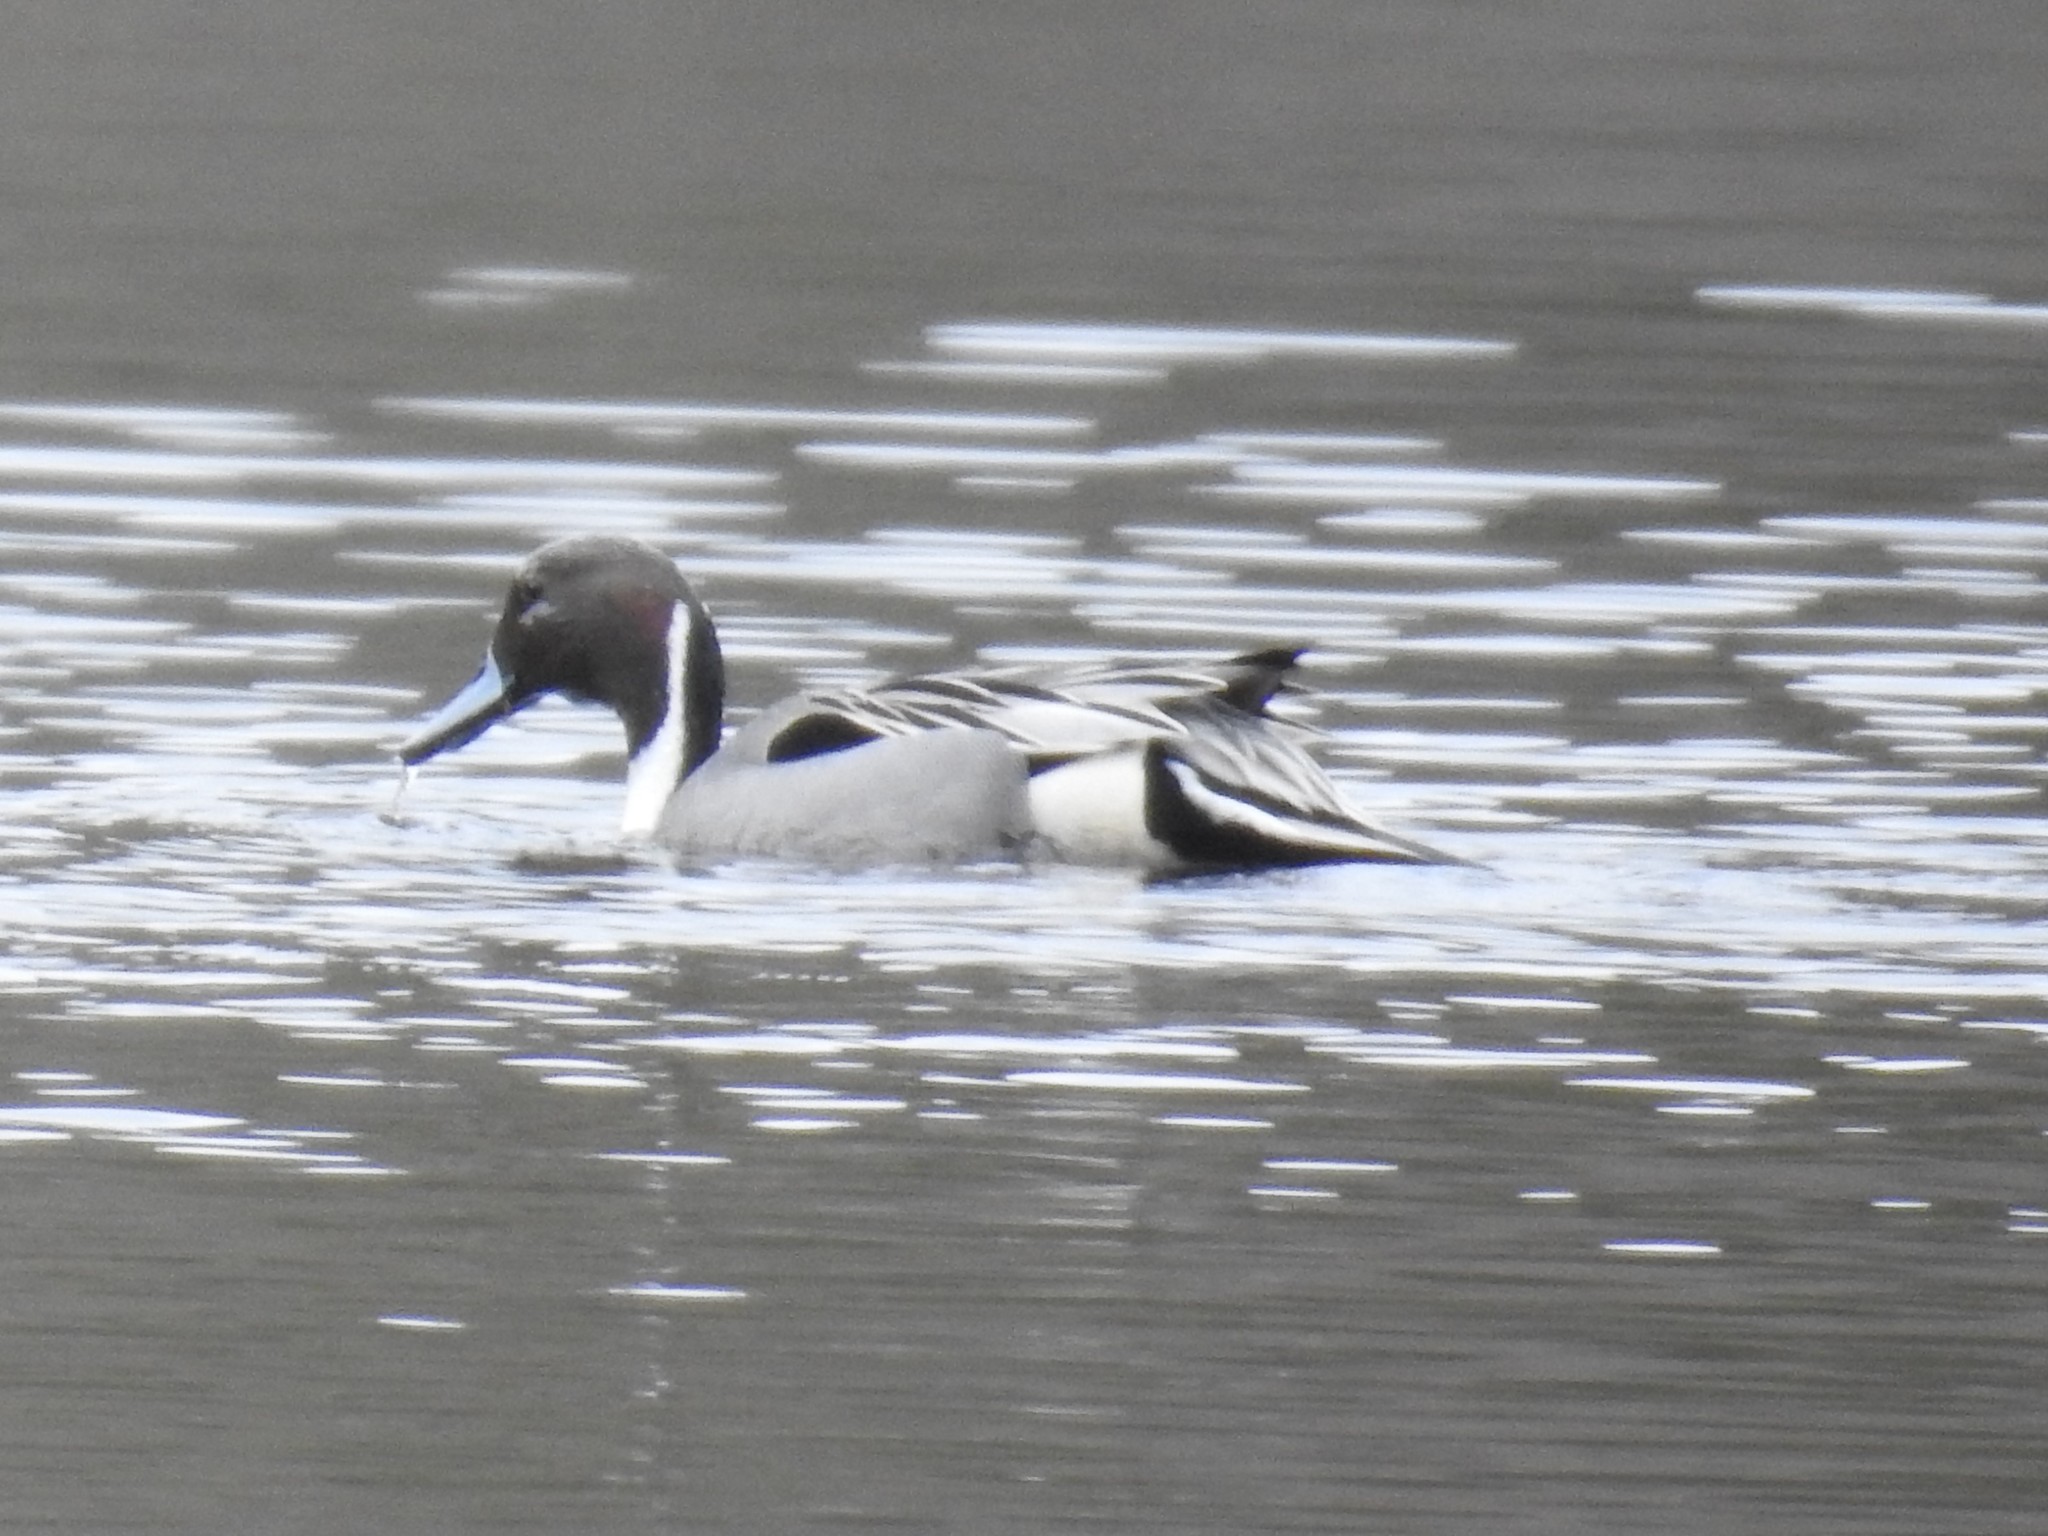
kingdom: Animalia
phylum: Chordata
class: Aves
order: Anseriformes
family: Anatidae
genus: Anas
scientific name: Anas acuta
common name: Northern pintail
